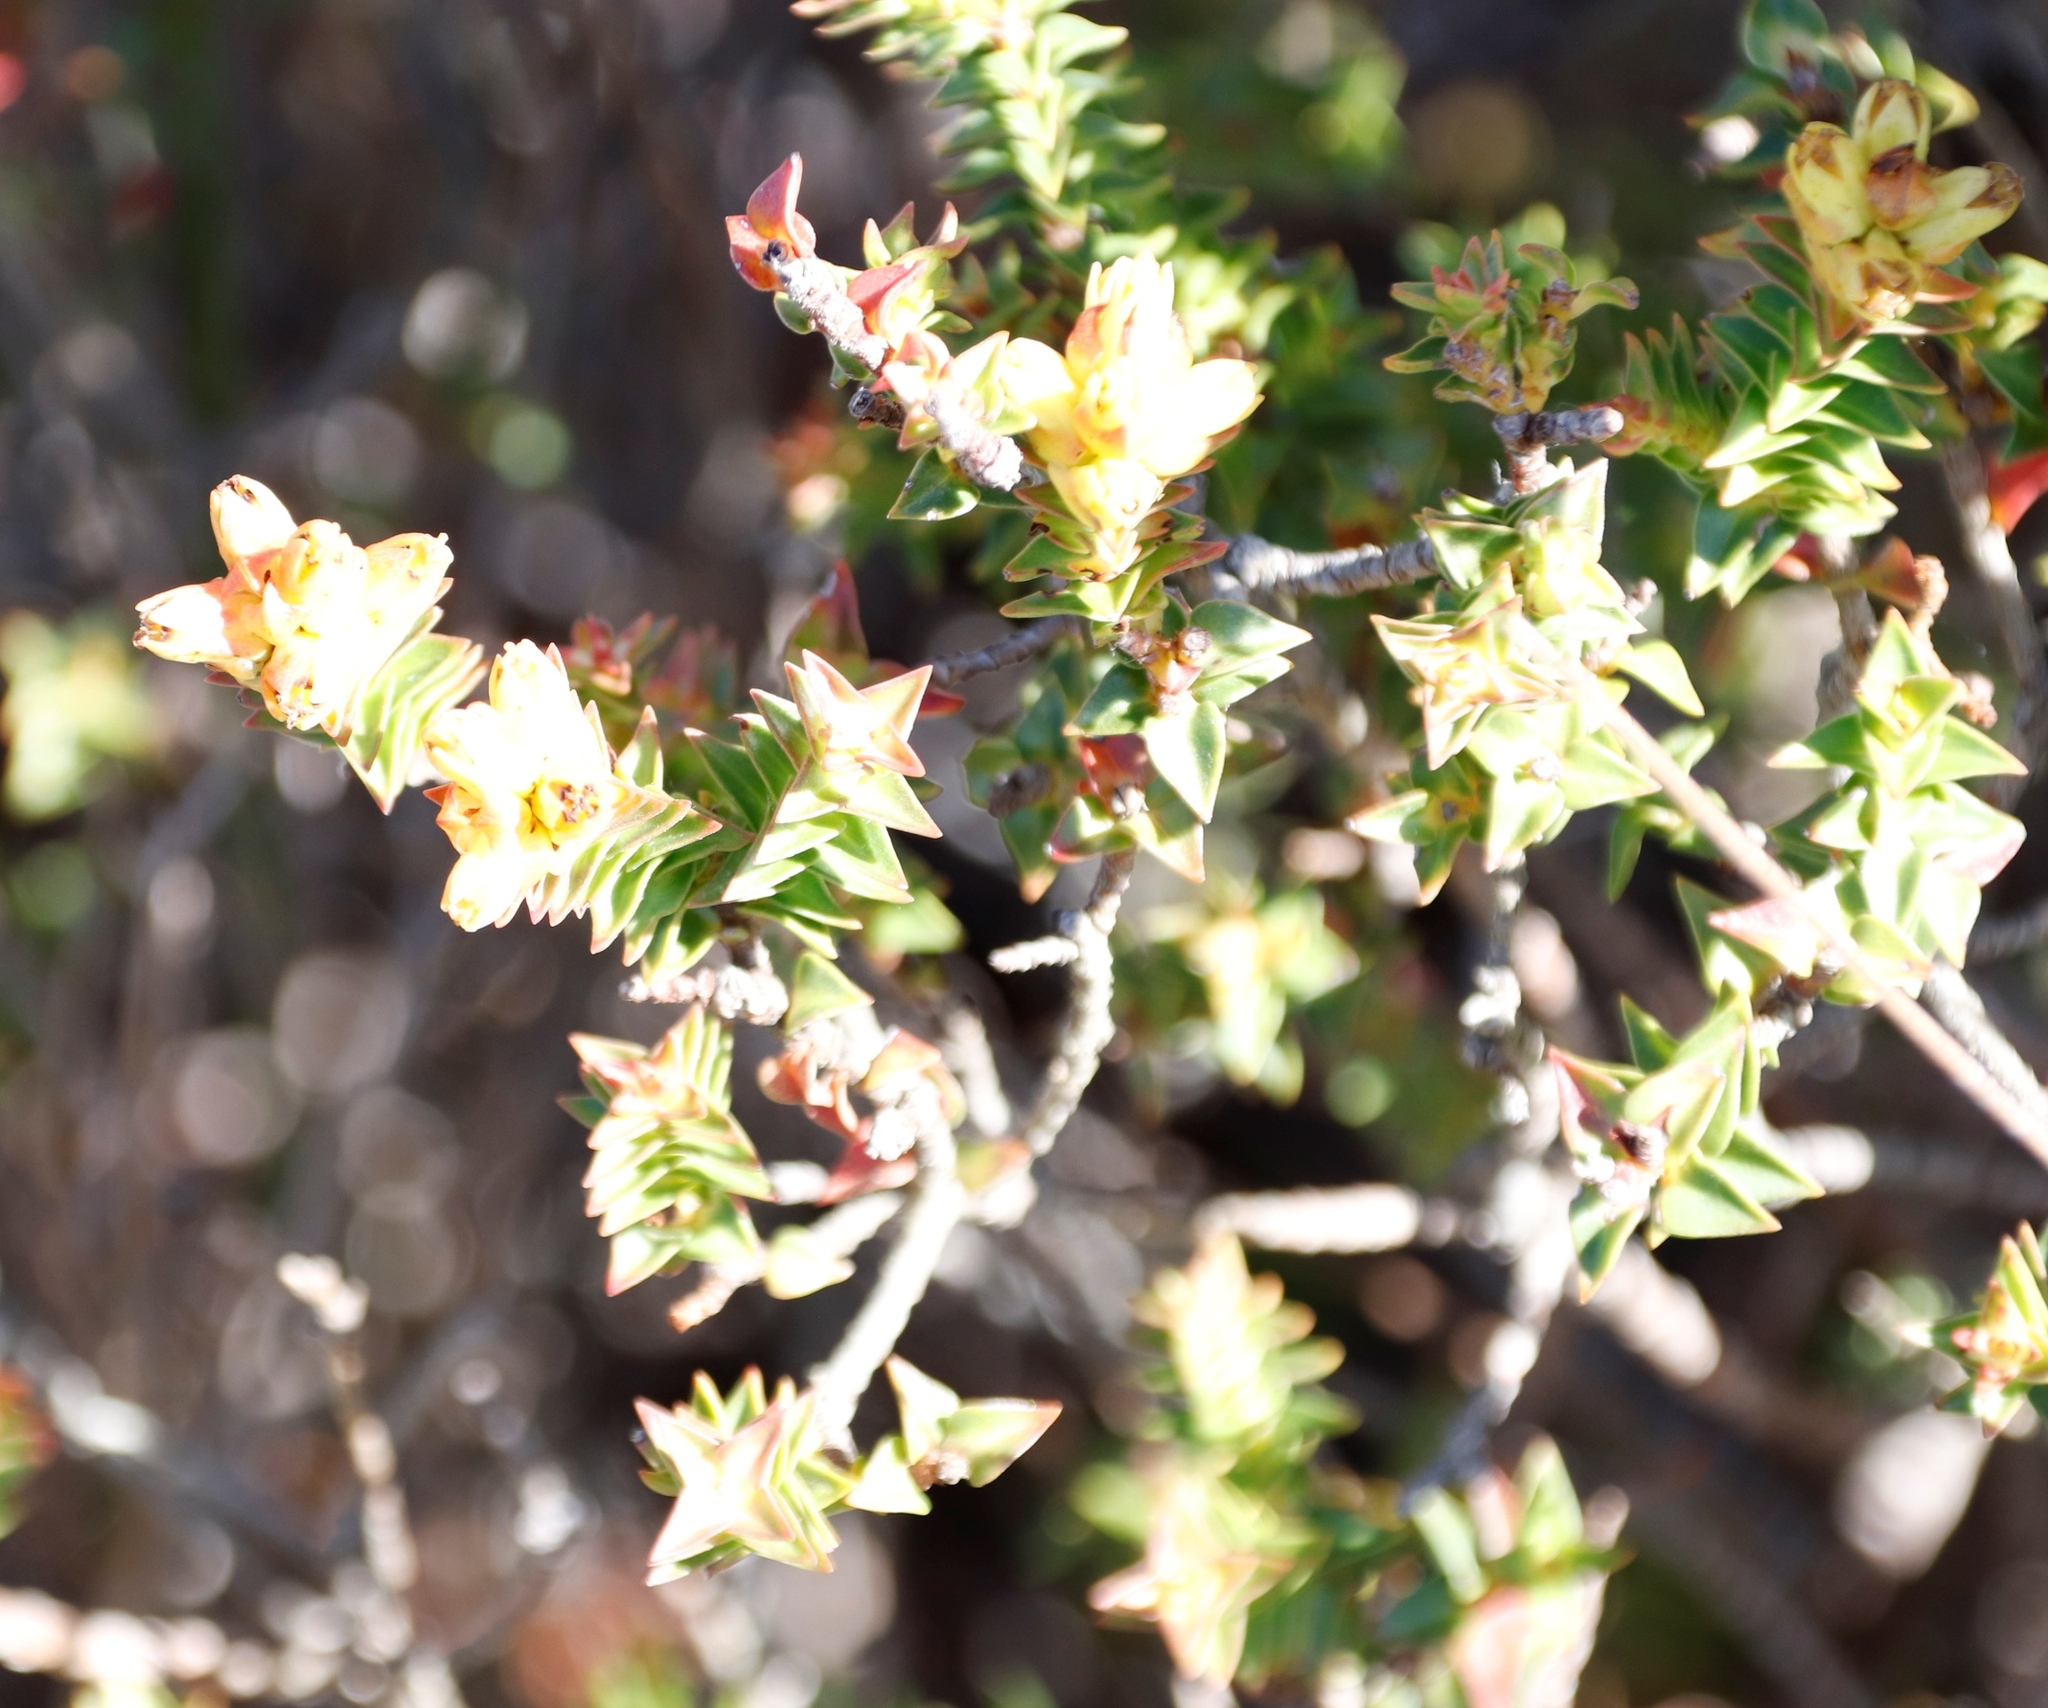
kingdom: Plantae
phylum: Tracheophyta
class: Magnoliopsida
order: Myrtales
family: Penaeaceae
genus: Penaea
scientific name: Penaea mucronata
